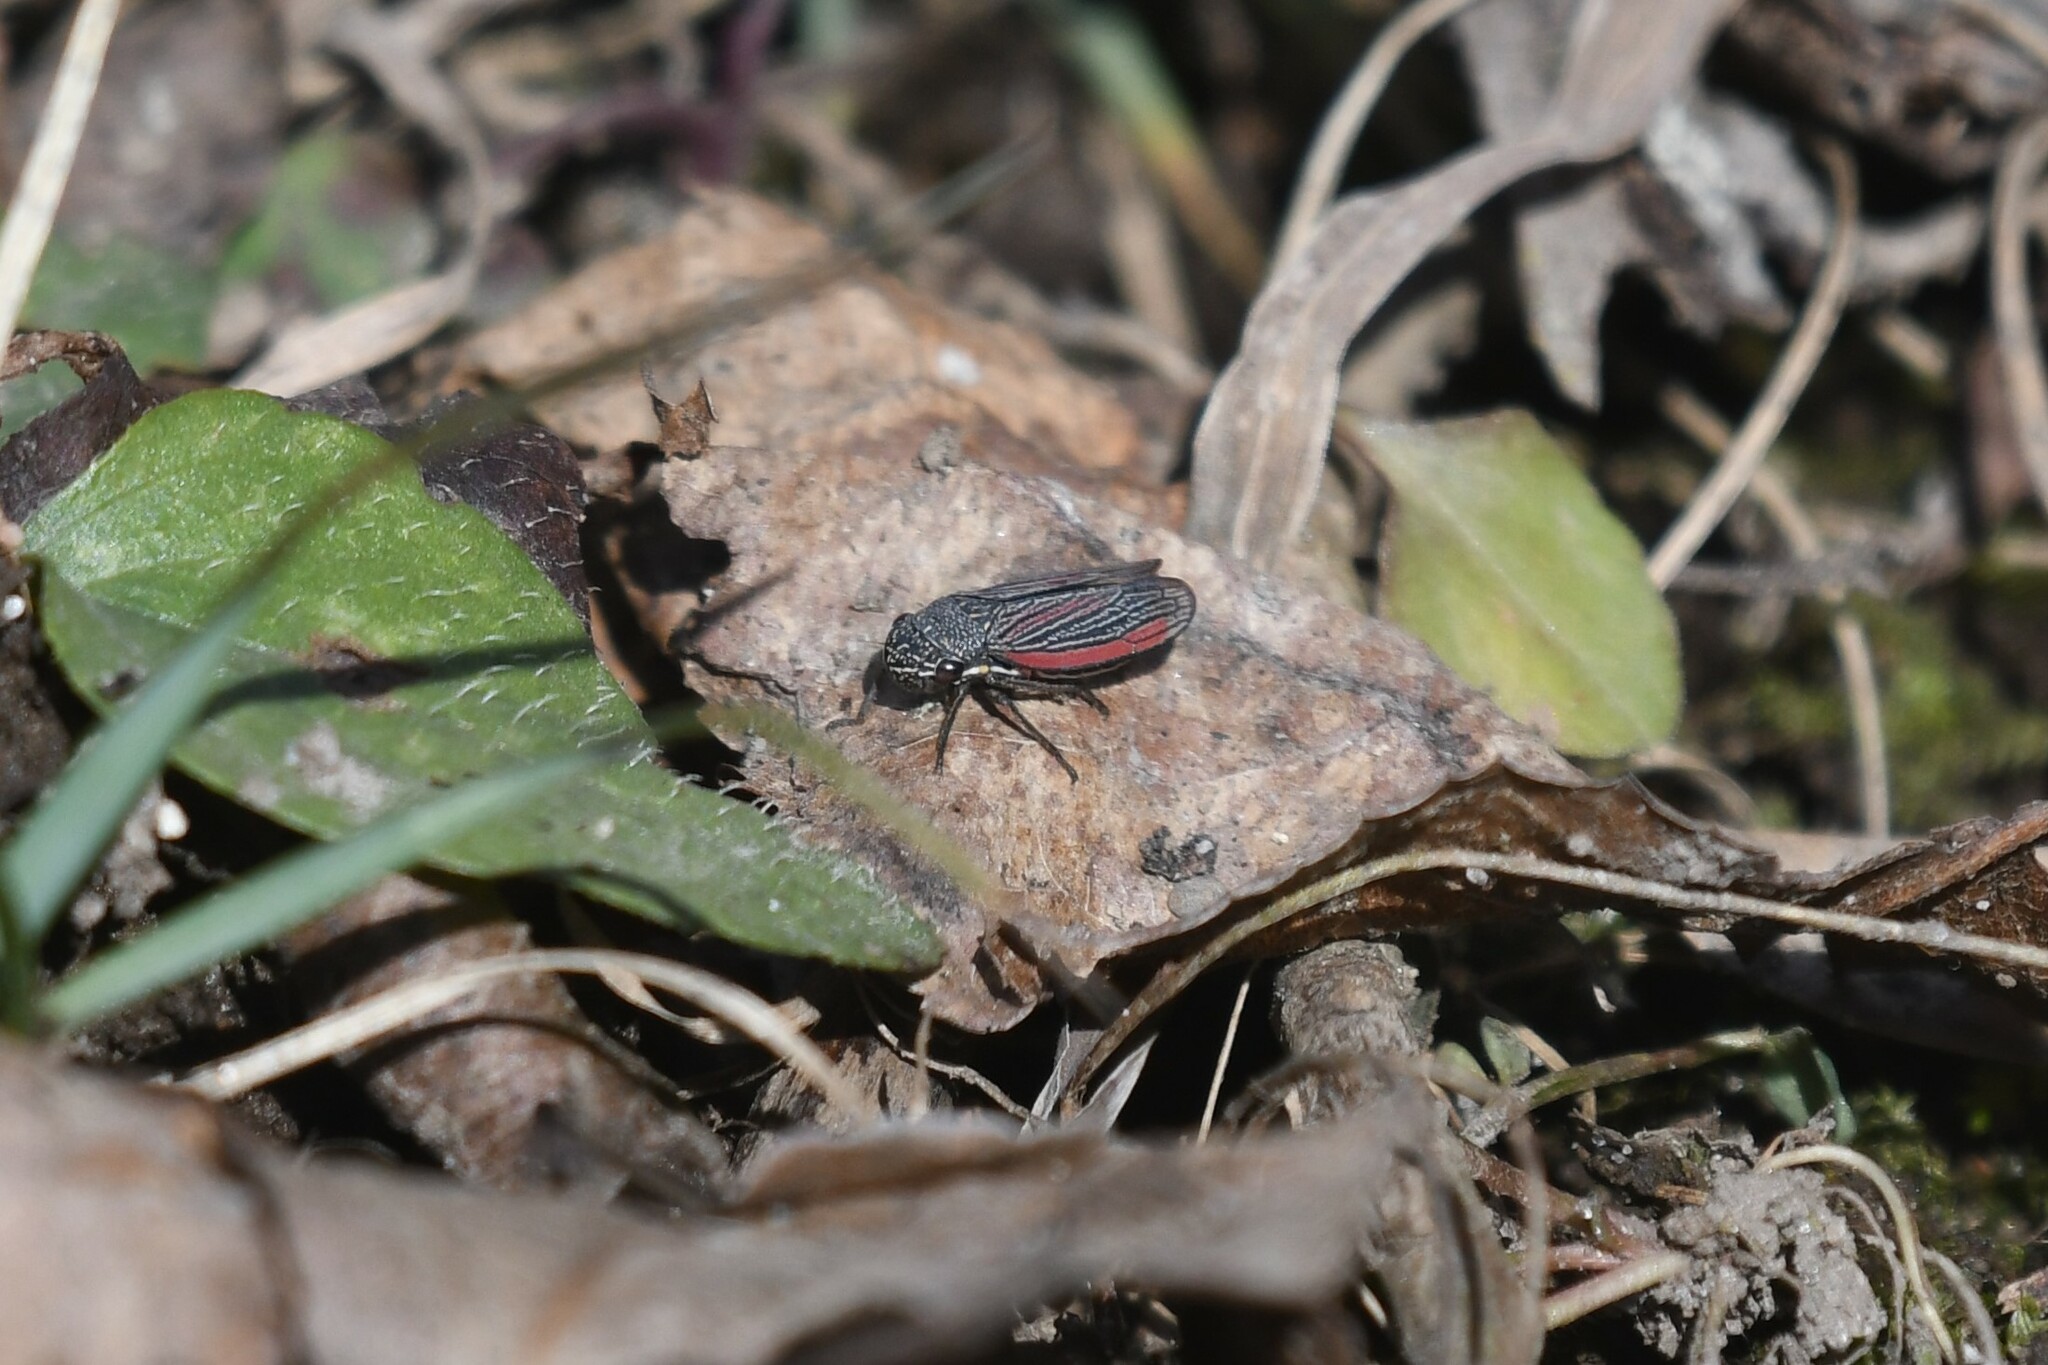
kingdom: Animalia
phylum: Arthropoda
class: Insecta
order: Hemiptera
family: Cicadellidae
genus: Cuerna
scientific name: Cuerna striata
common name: Striped leafhopper
